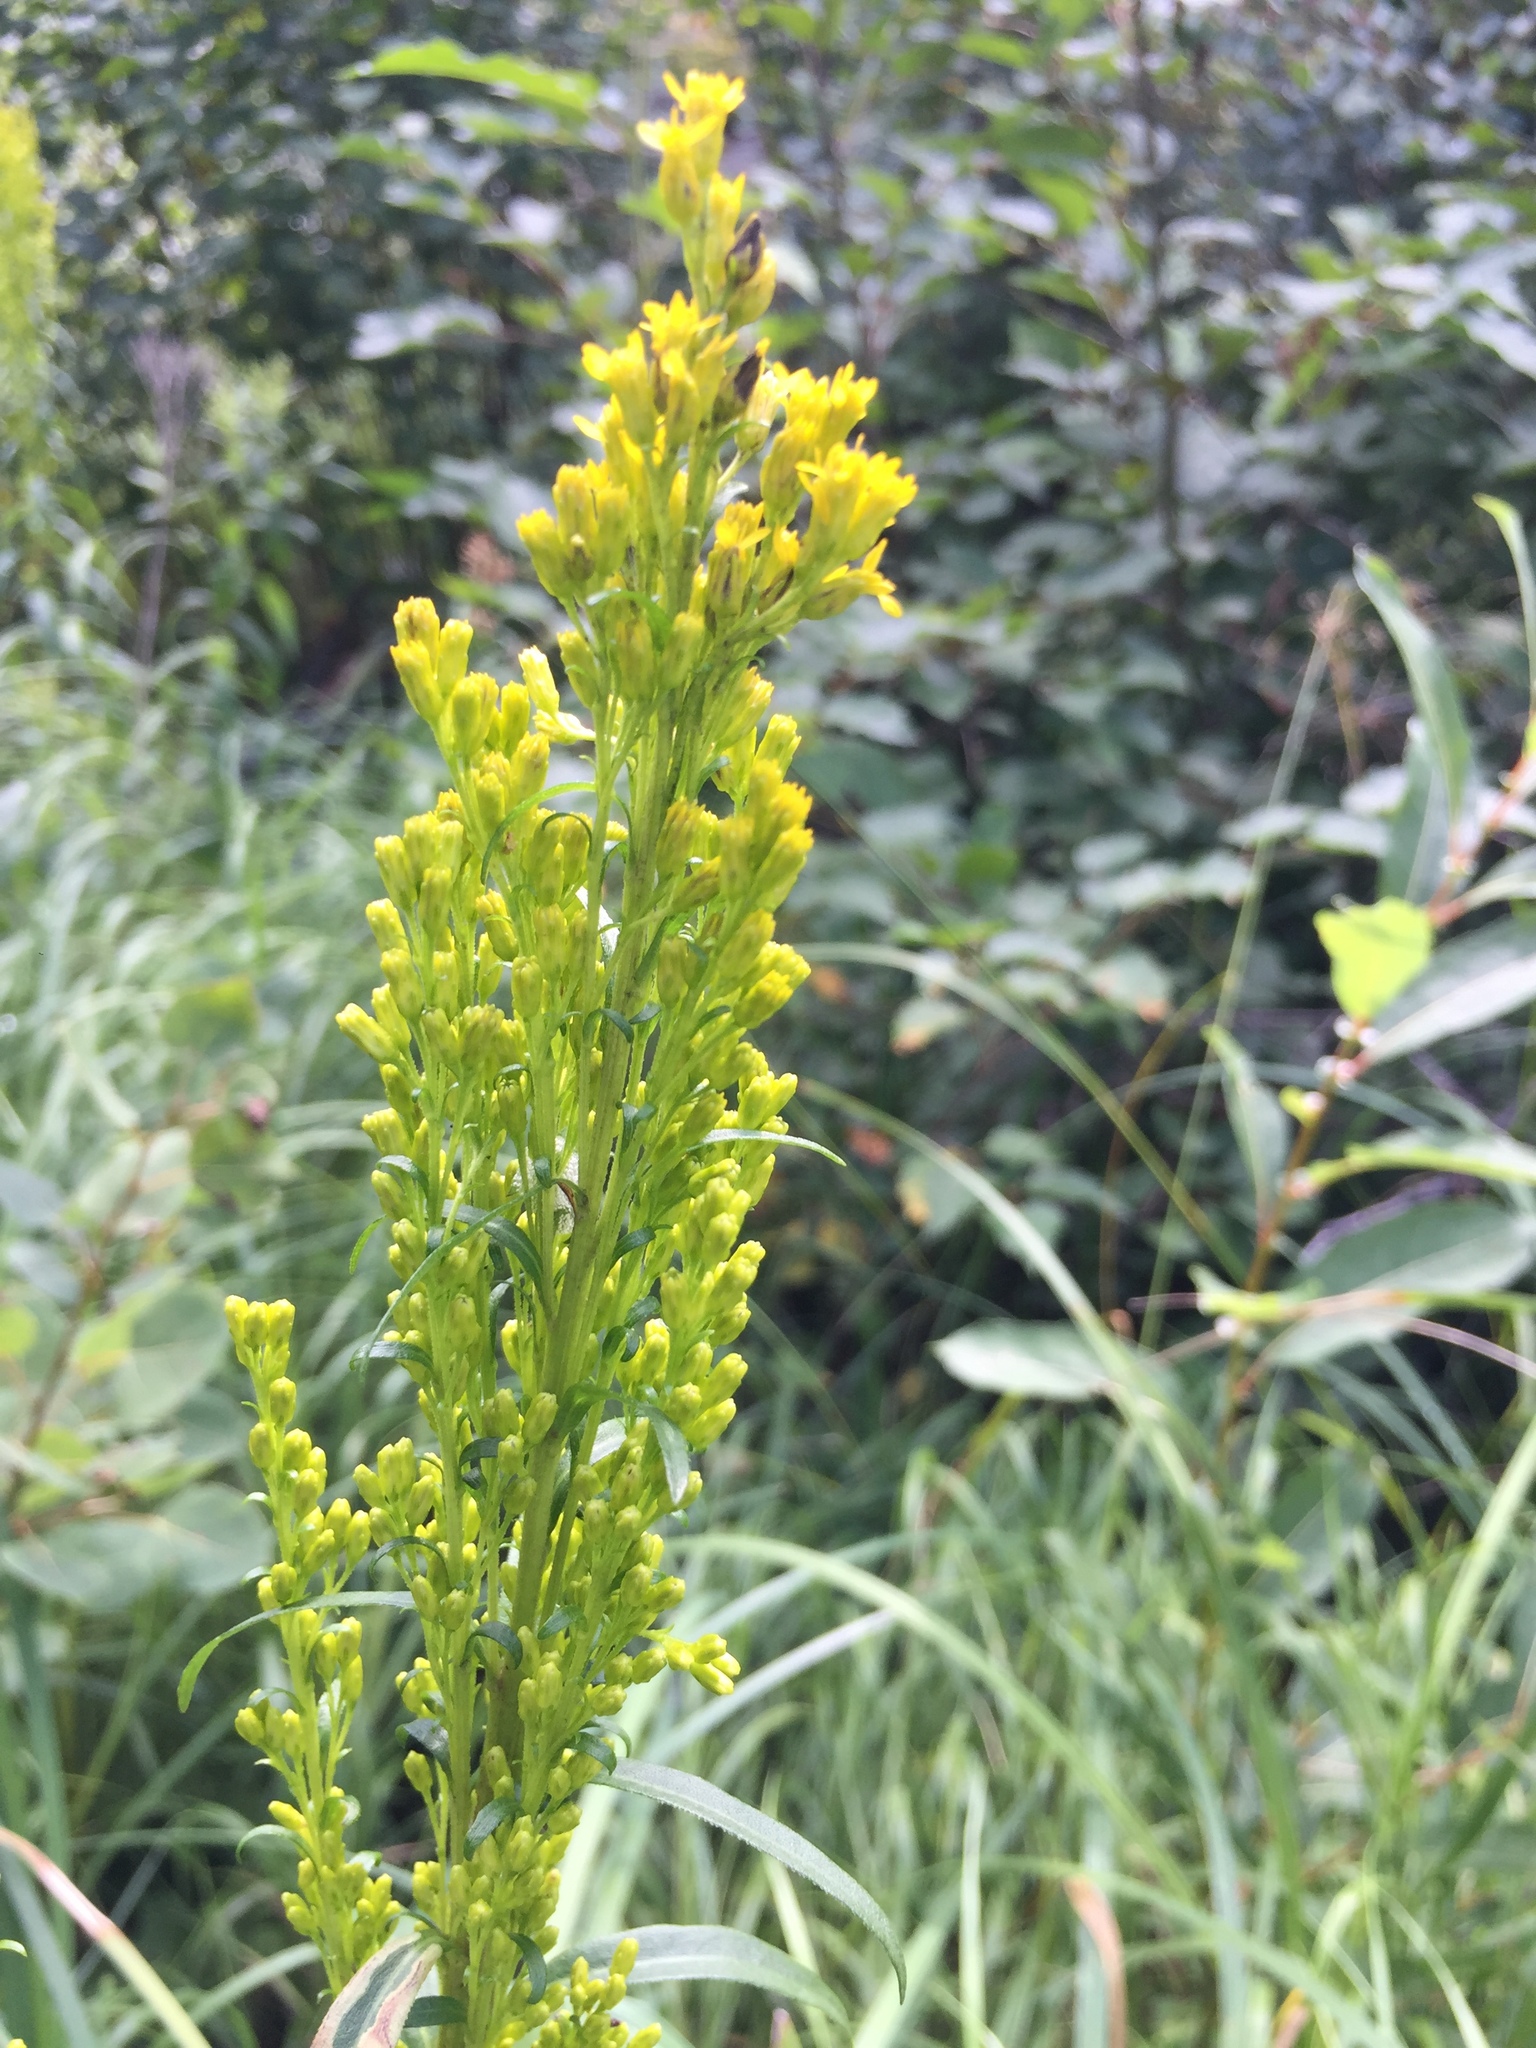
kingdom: Plantae
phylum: Tracheophyta
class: Magnoliopsida
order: Asterales
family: Asteraceae
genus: Solidago
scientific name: Solidago uliginosa
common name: Bog goldenrod
